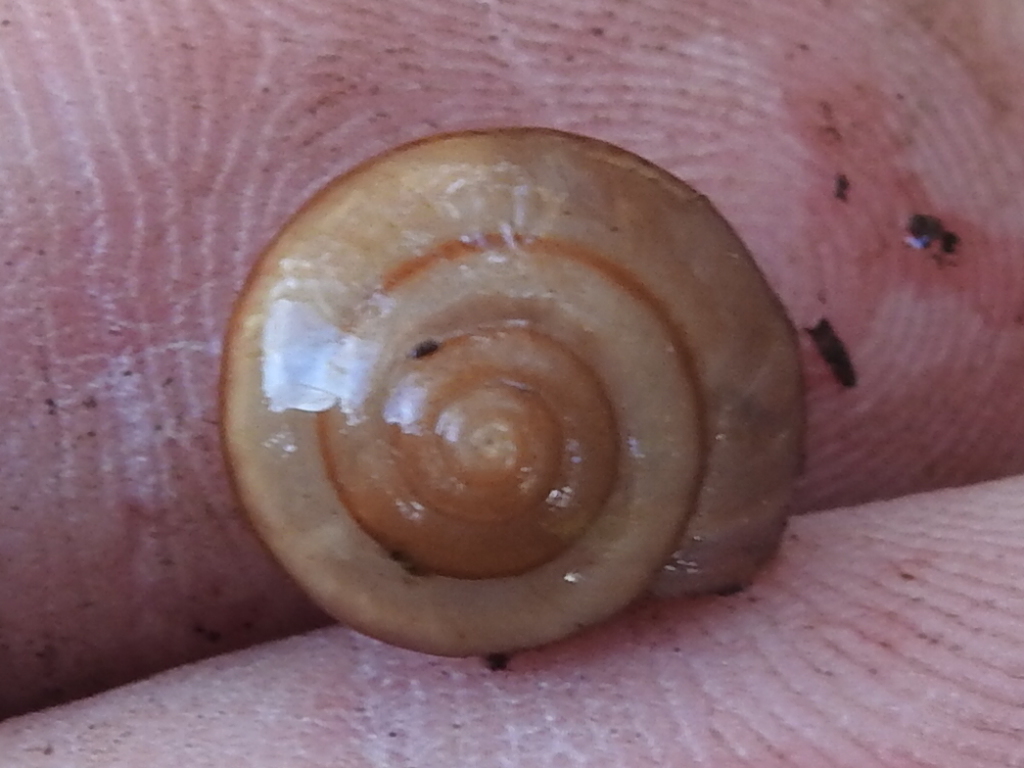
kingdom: Animalia
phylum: Mollusca
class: Gastropoda
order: Stylommatophora
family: Camaenidae
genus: Bradybaena
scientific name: Bradybaena similaris
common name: Asian trampsnail
